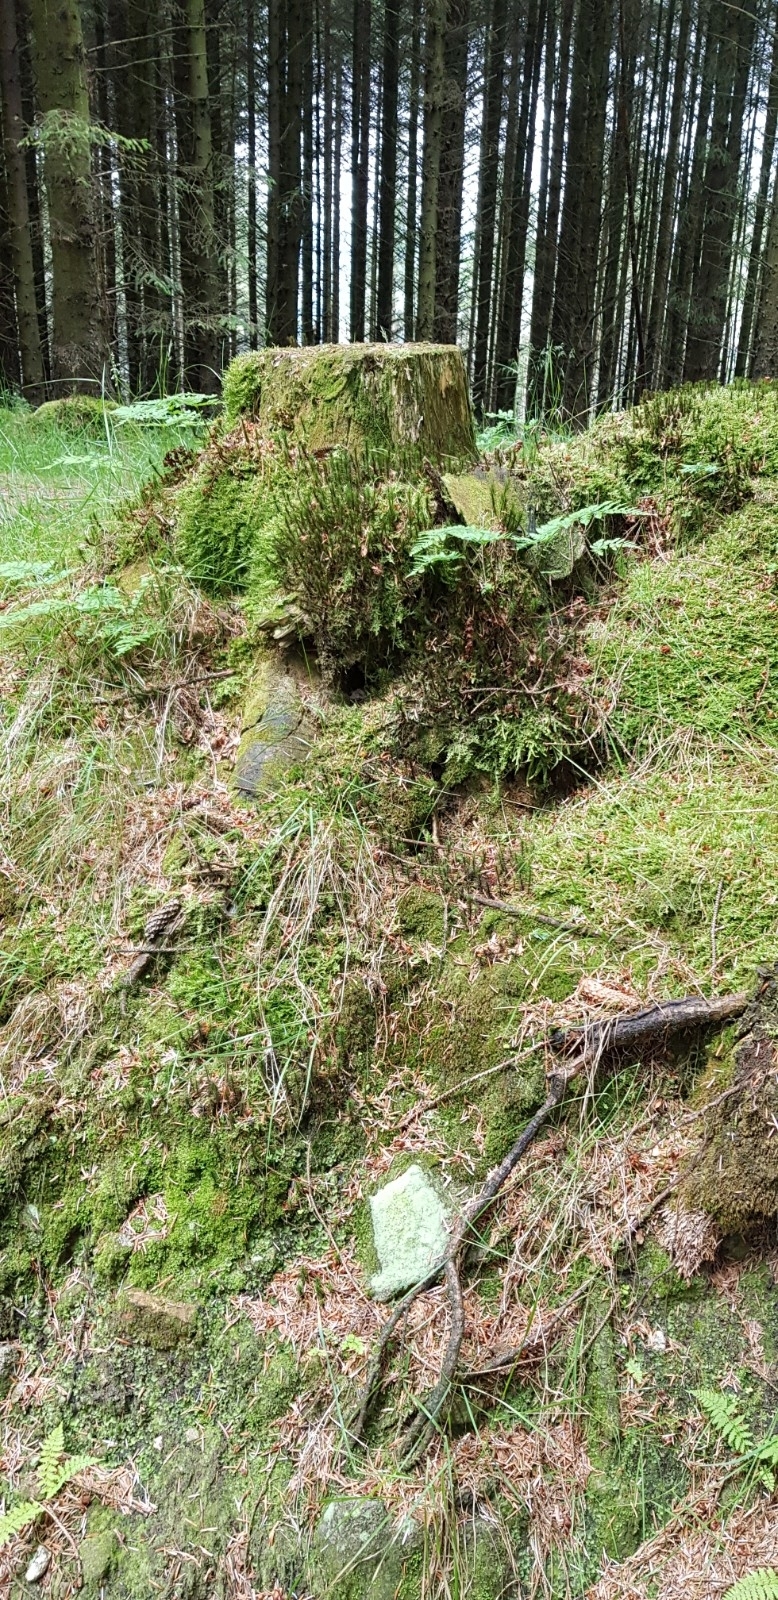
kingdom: Plantae
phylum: Marchantiophyta
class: Jungermanniopsida
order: Jungermanniales
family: Cephaloziaceae
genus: Nowellia
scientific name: Nowellia curvifolia
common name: Wood rustwort
